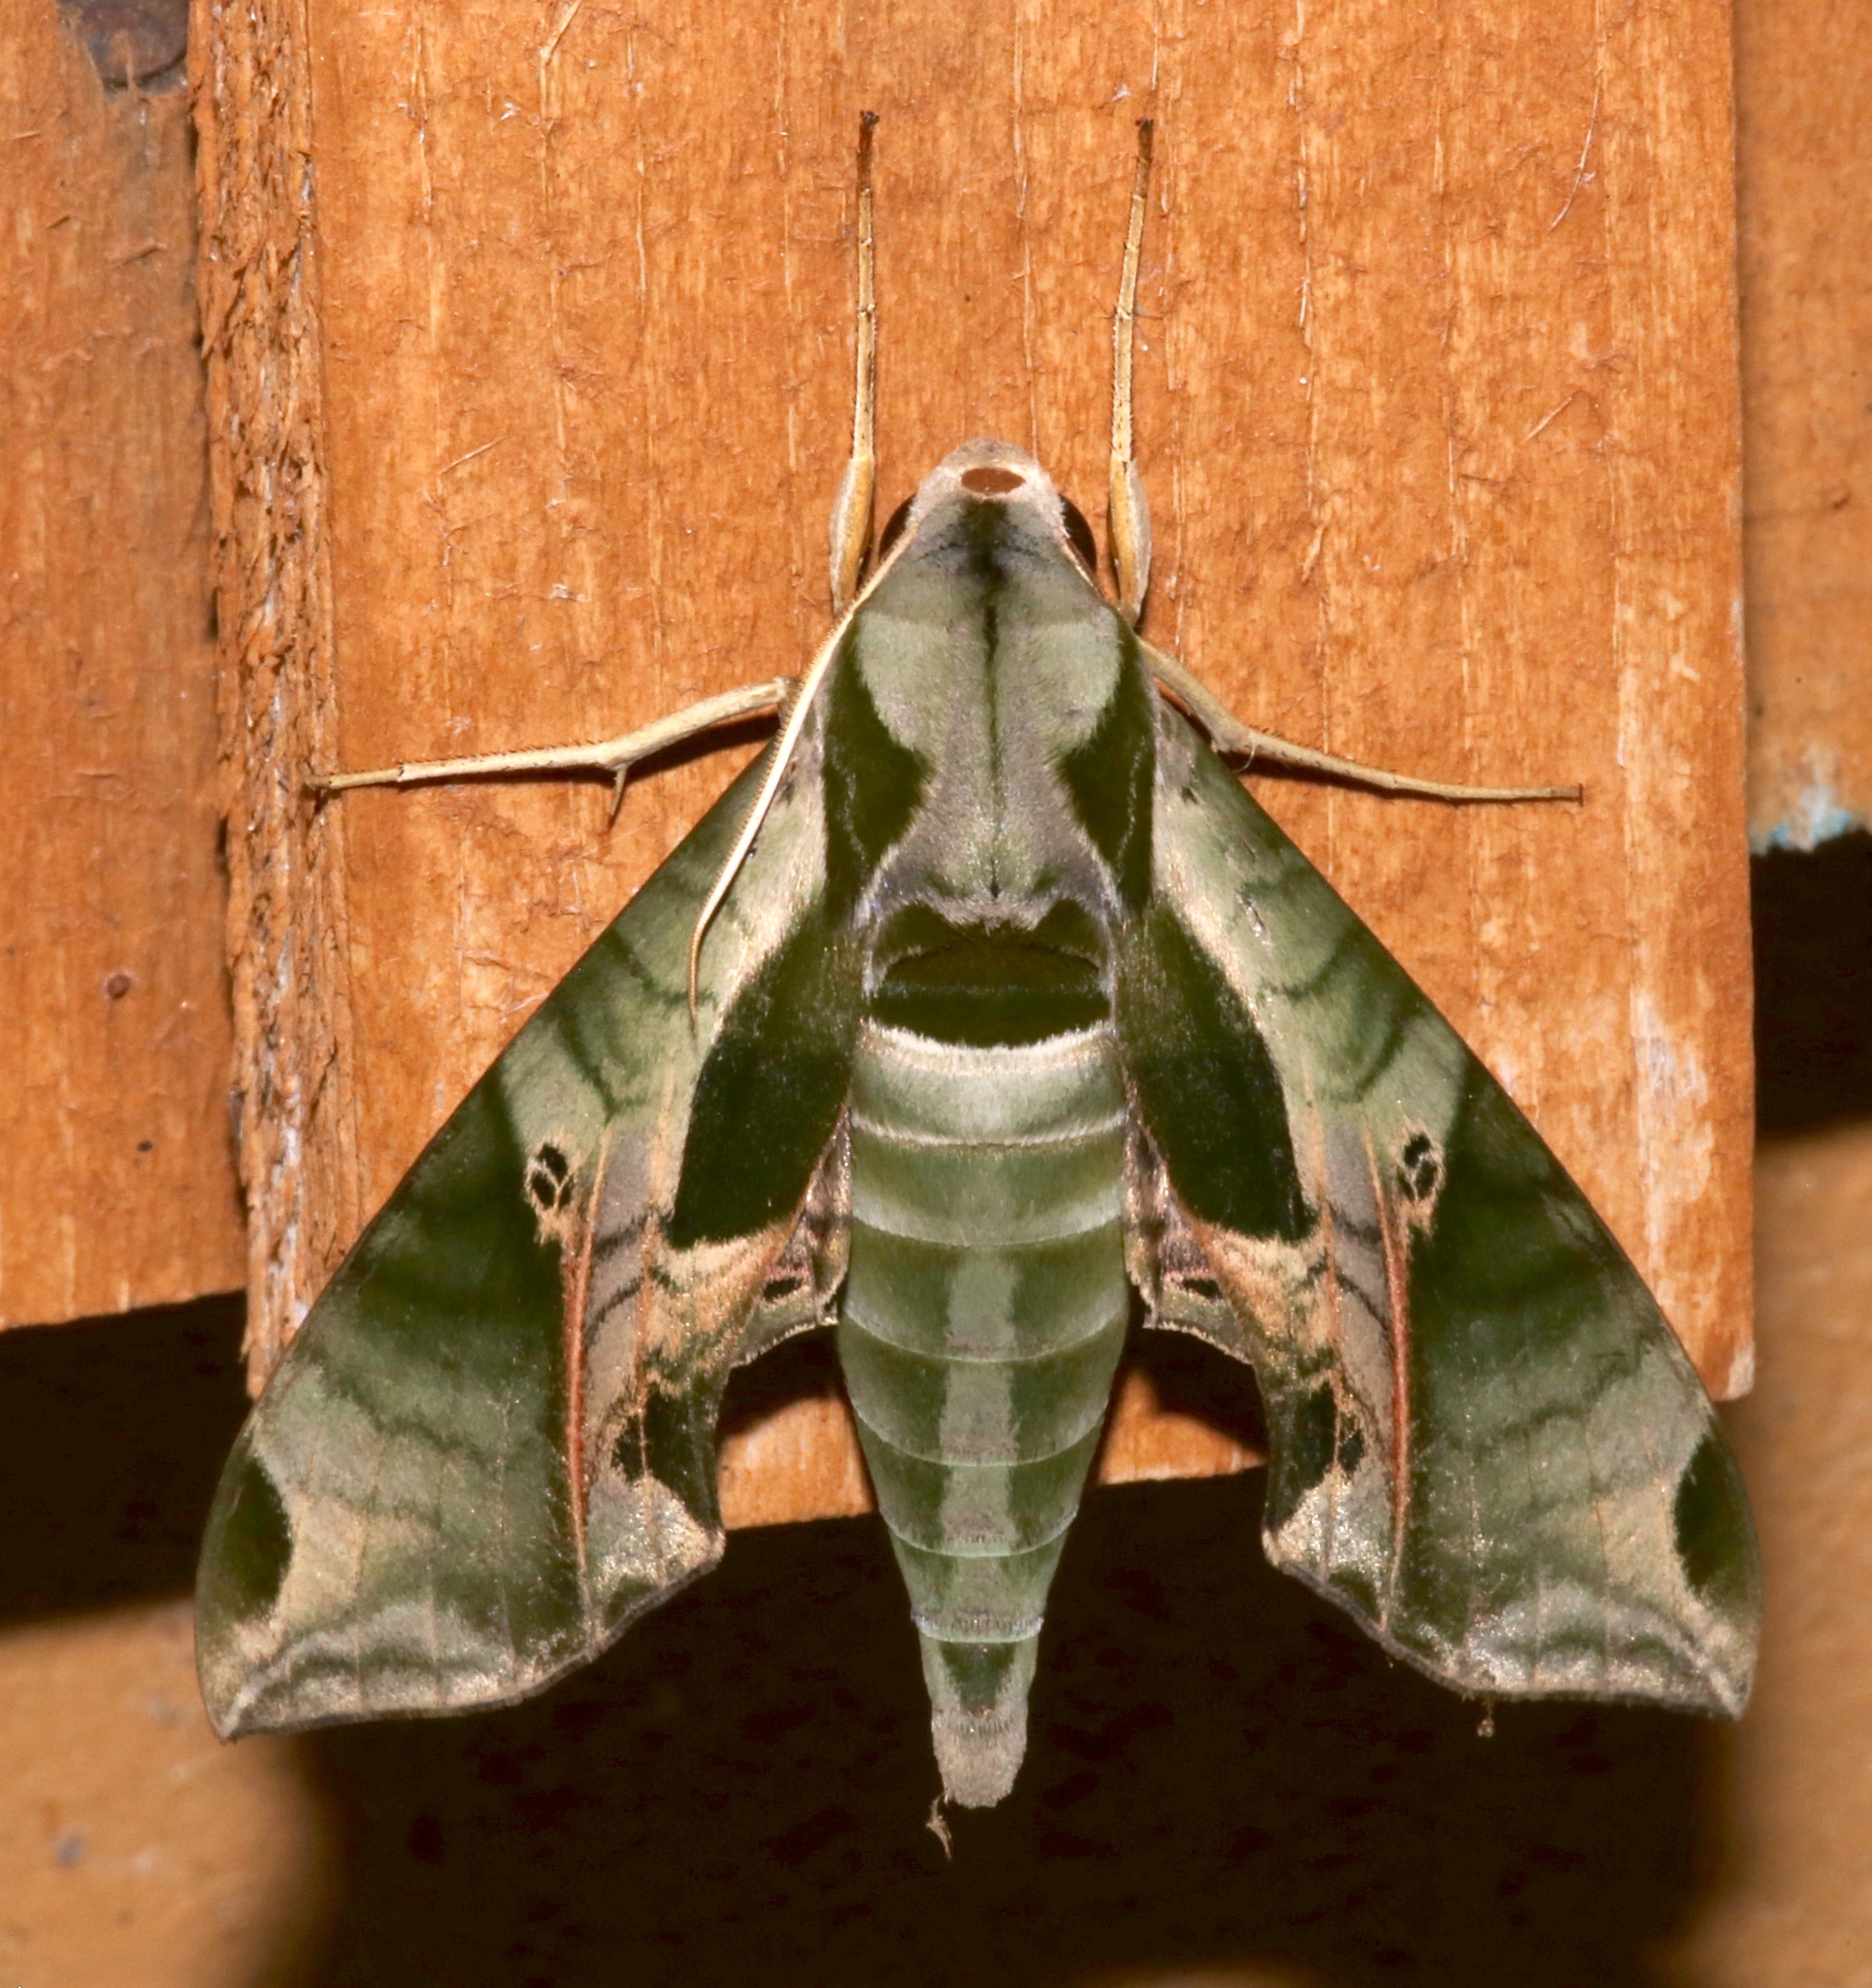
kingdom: Animalia
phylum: Arthropoda
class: Insecta
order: Lepidoptera
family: Sphingidae
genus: Eumorpha
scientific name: Eumorpha pandorus
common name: Pandora sphinx
